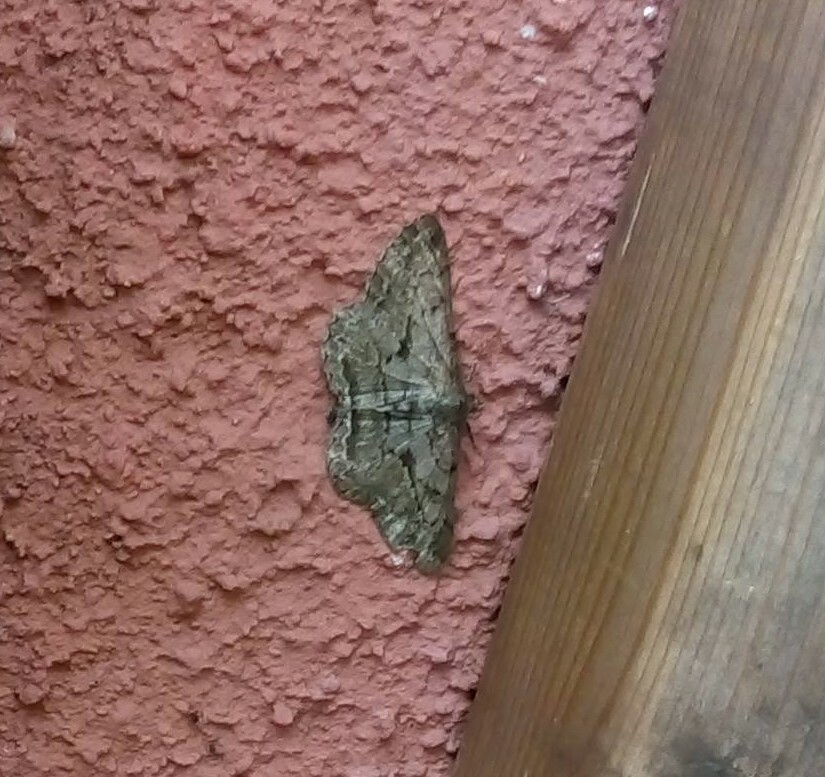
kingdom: Animalia
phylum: Arthropoda
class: Insecta
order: Lepidoptera
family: Geometridae
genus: Peribatodes
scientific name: Peribatodes rhomboidaria
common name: Willow beauty
